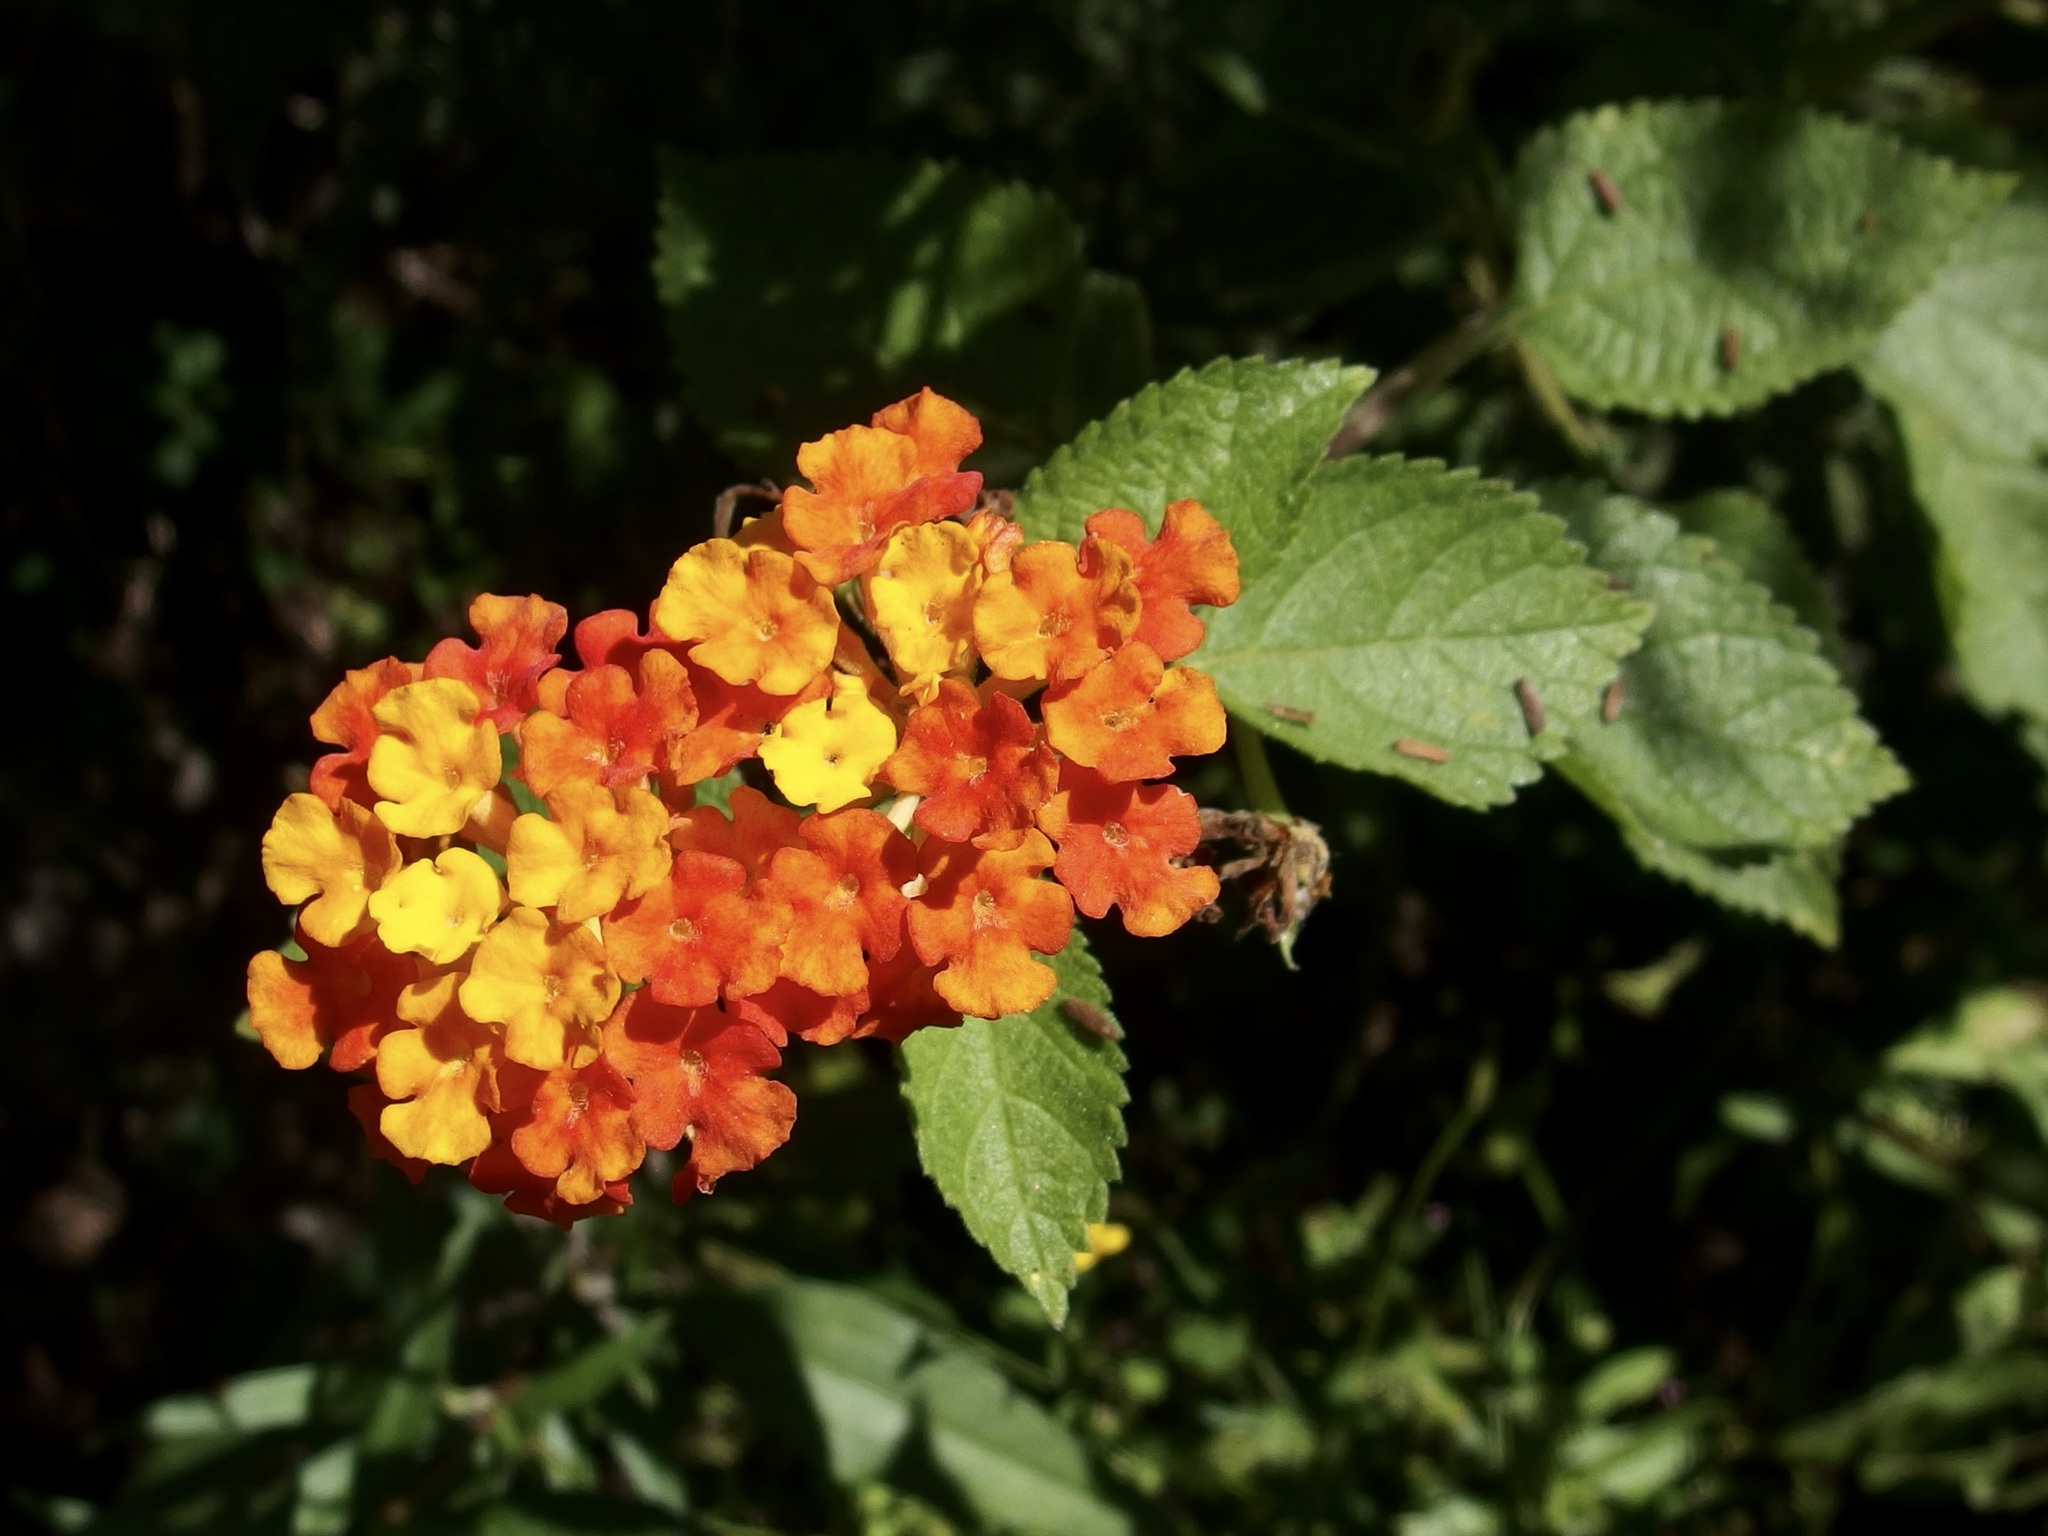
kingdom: Plantae
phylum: Tracheophyta
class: Magnoliopsida
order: Lamiales
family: Verbenaceae
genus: Lantana
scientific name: Lantana camara
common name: Lantana
